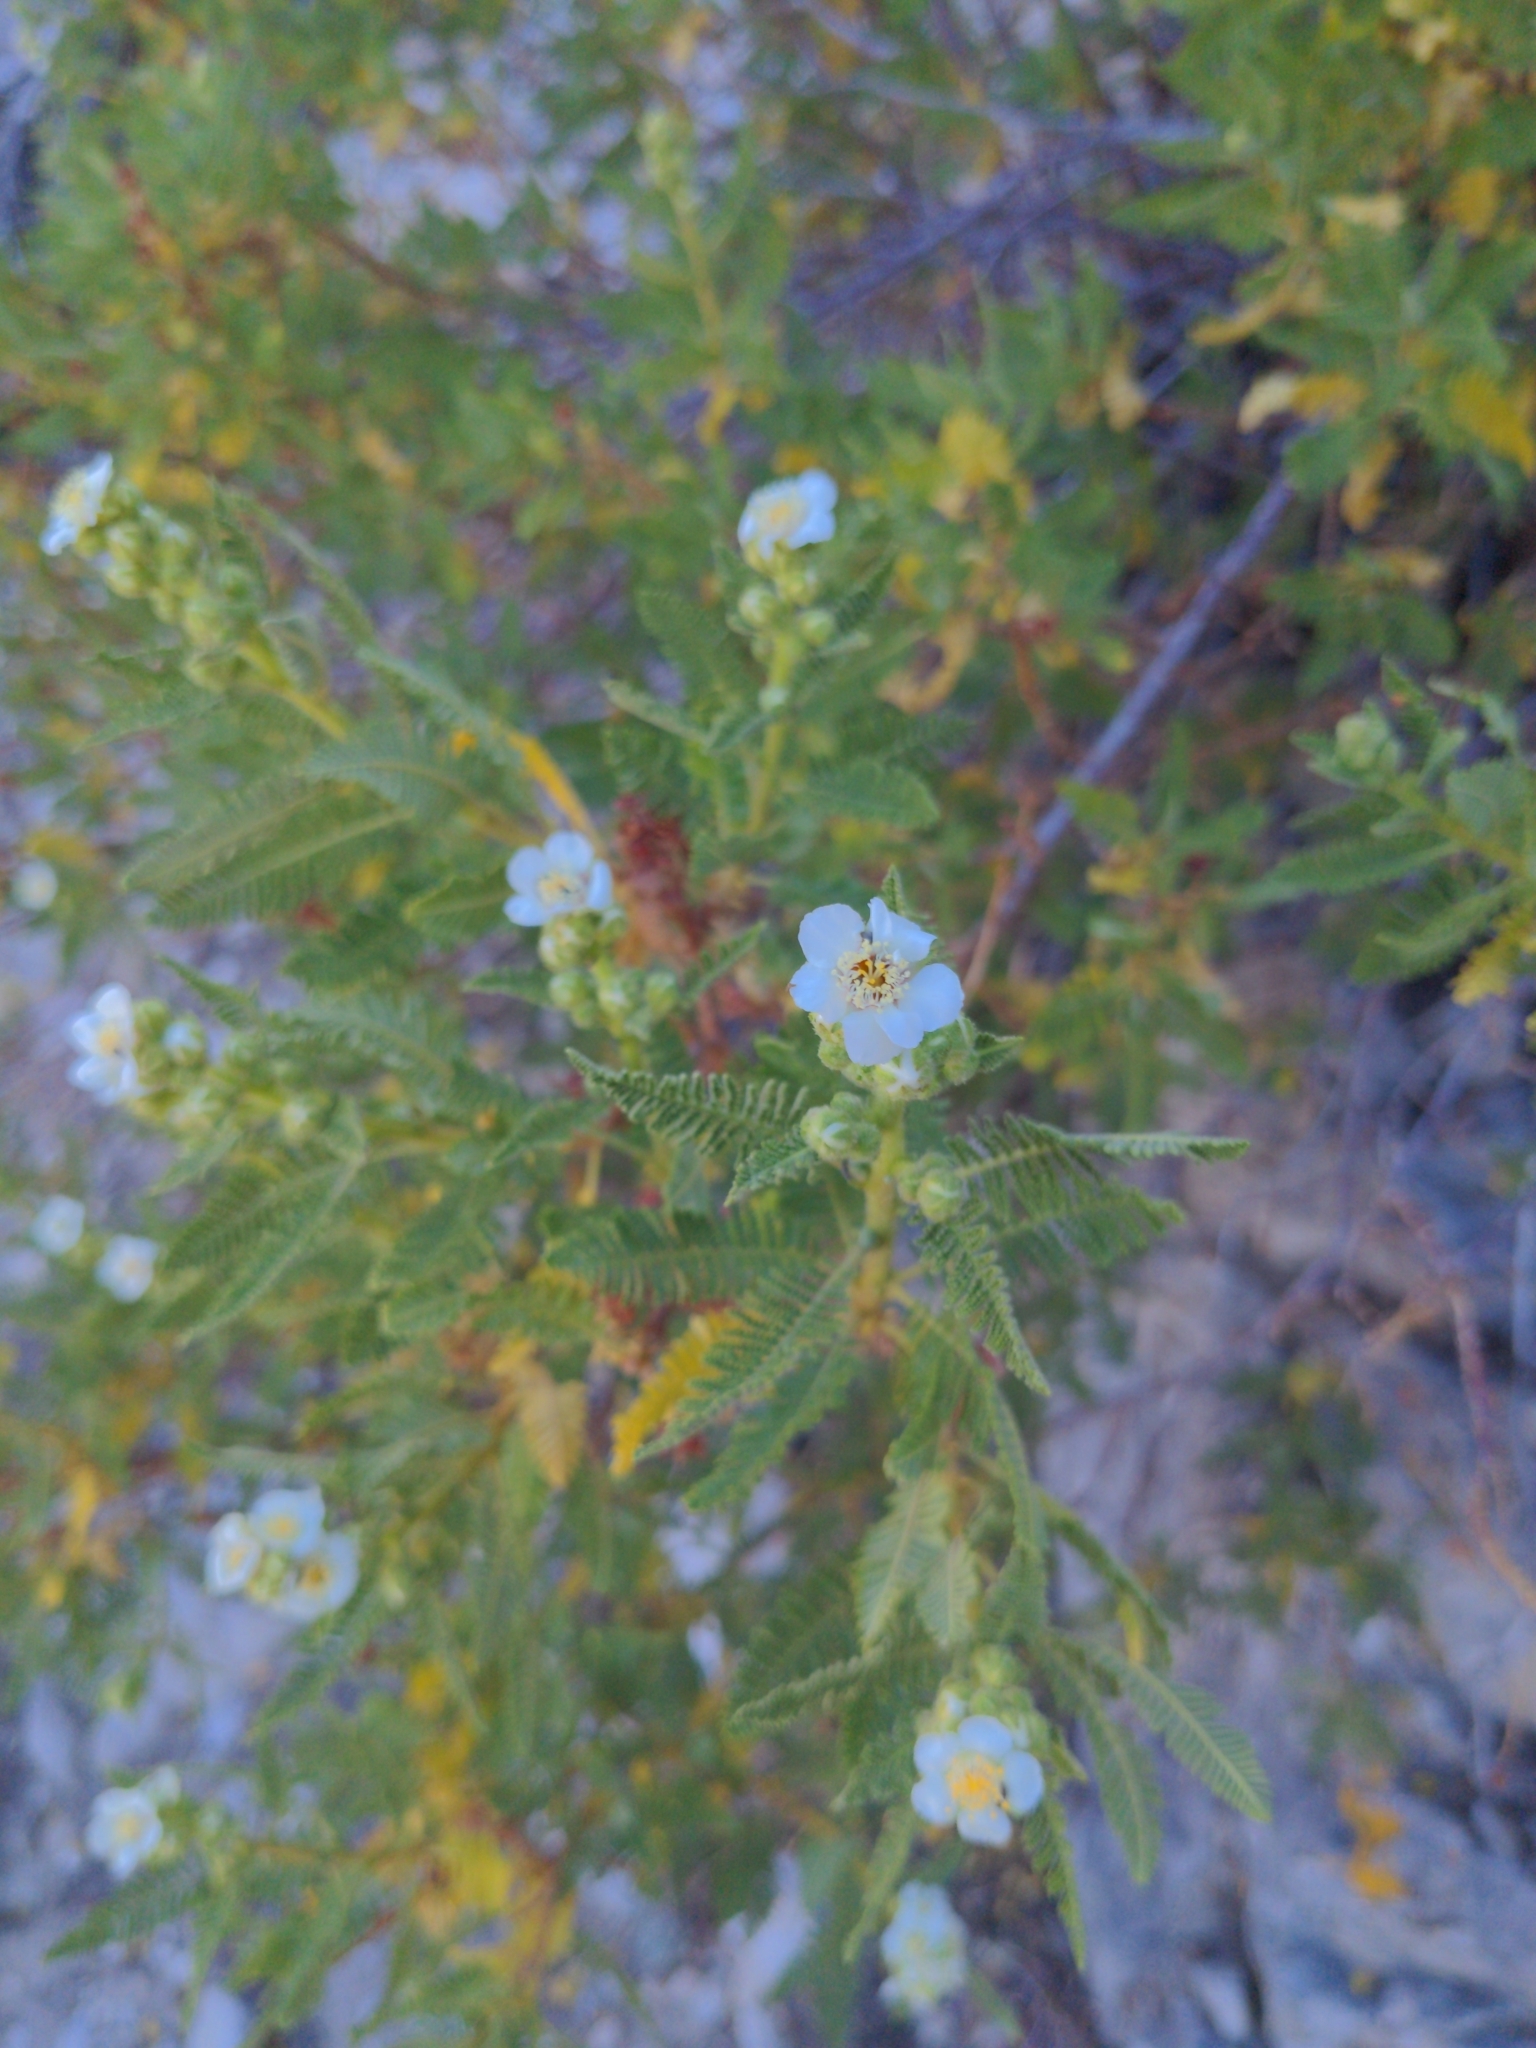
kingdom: Plantae
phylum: Tracheophyta
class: Magnoliopsida
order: Rosales
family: Rosaceae
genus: Chamaebatiaria
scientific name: Chamaebatiaria millefolium
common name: Fernbush
